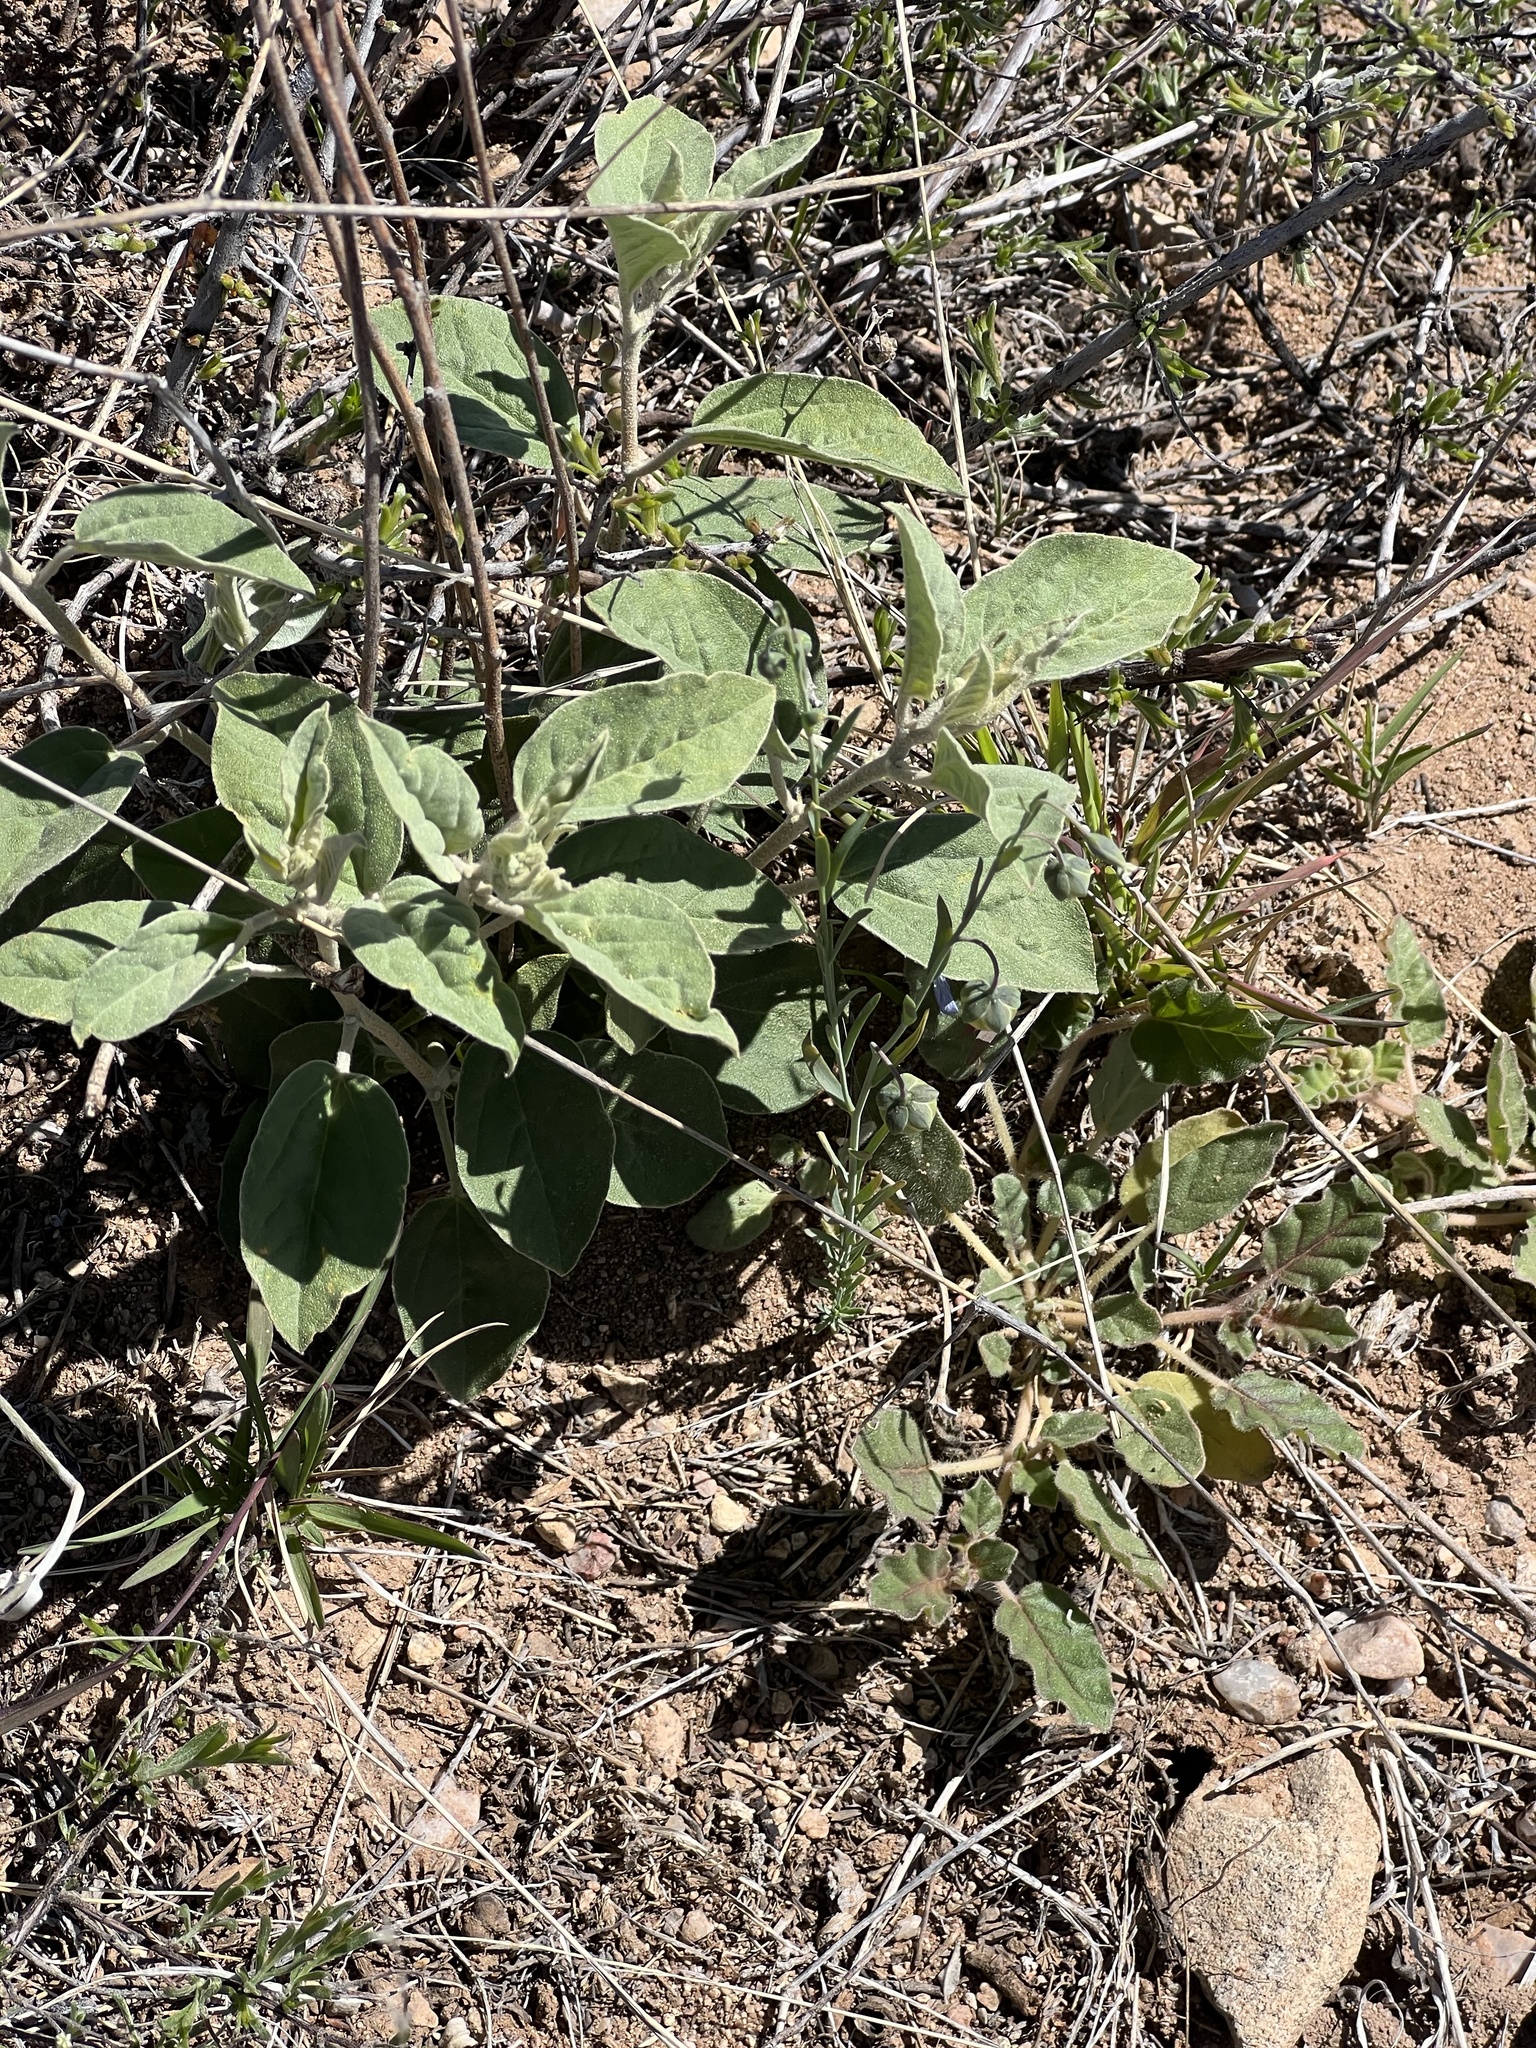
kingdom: Plantae
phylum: Tracheophyta
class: Magnoliopsida
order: Malpighiales
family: Euphorbiaceae
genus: Croton
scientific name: Croton pottsii
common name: Leatherweed
